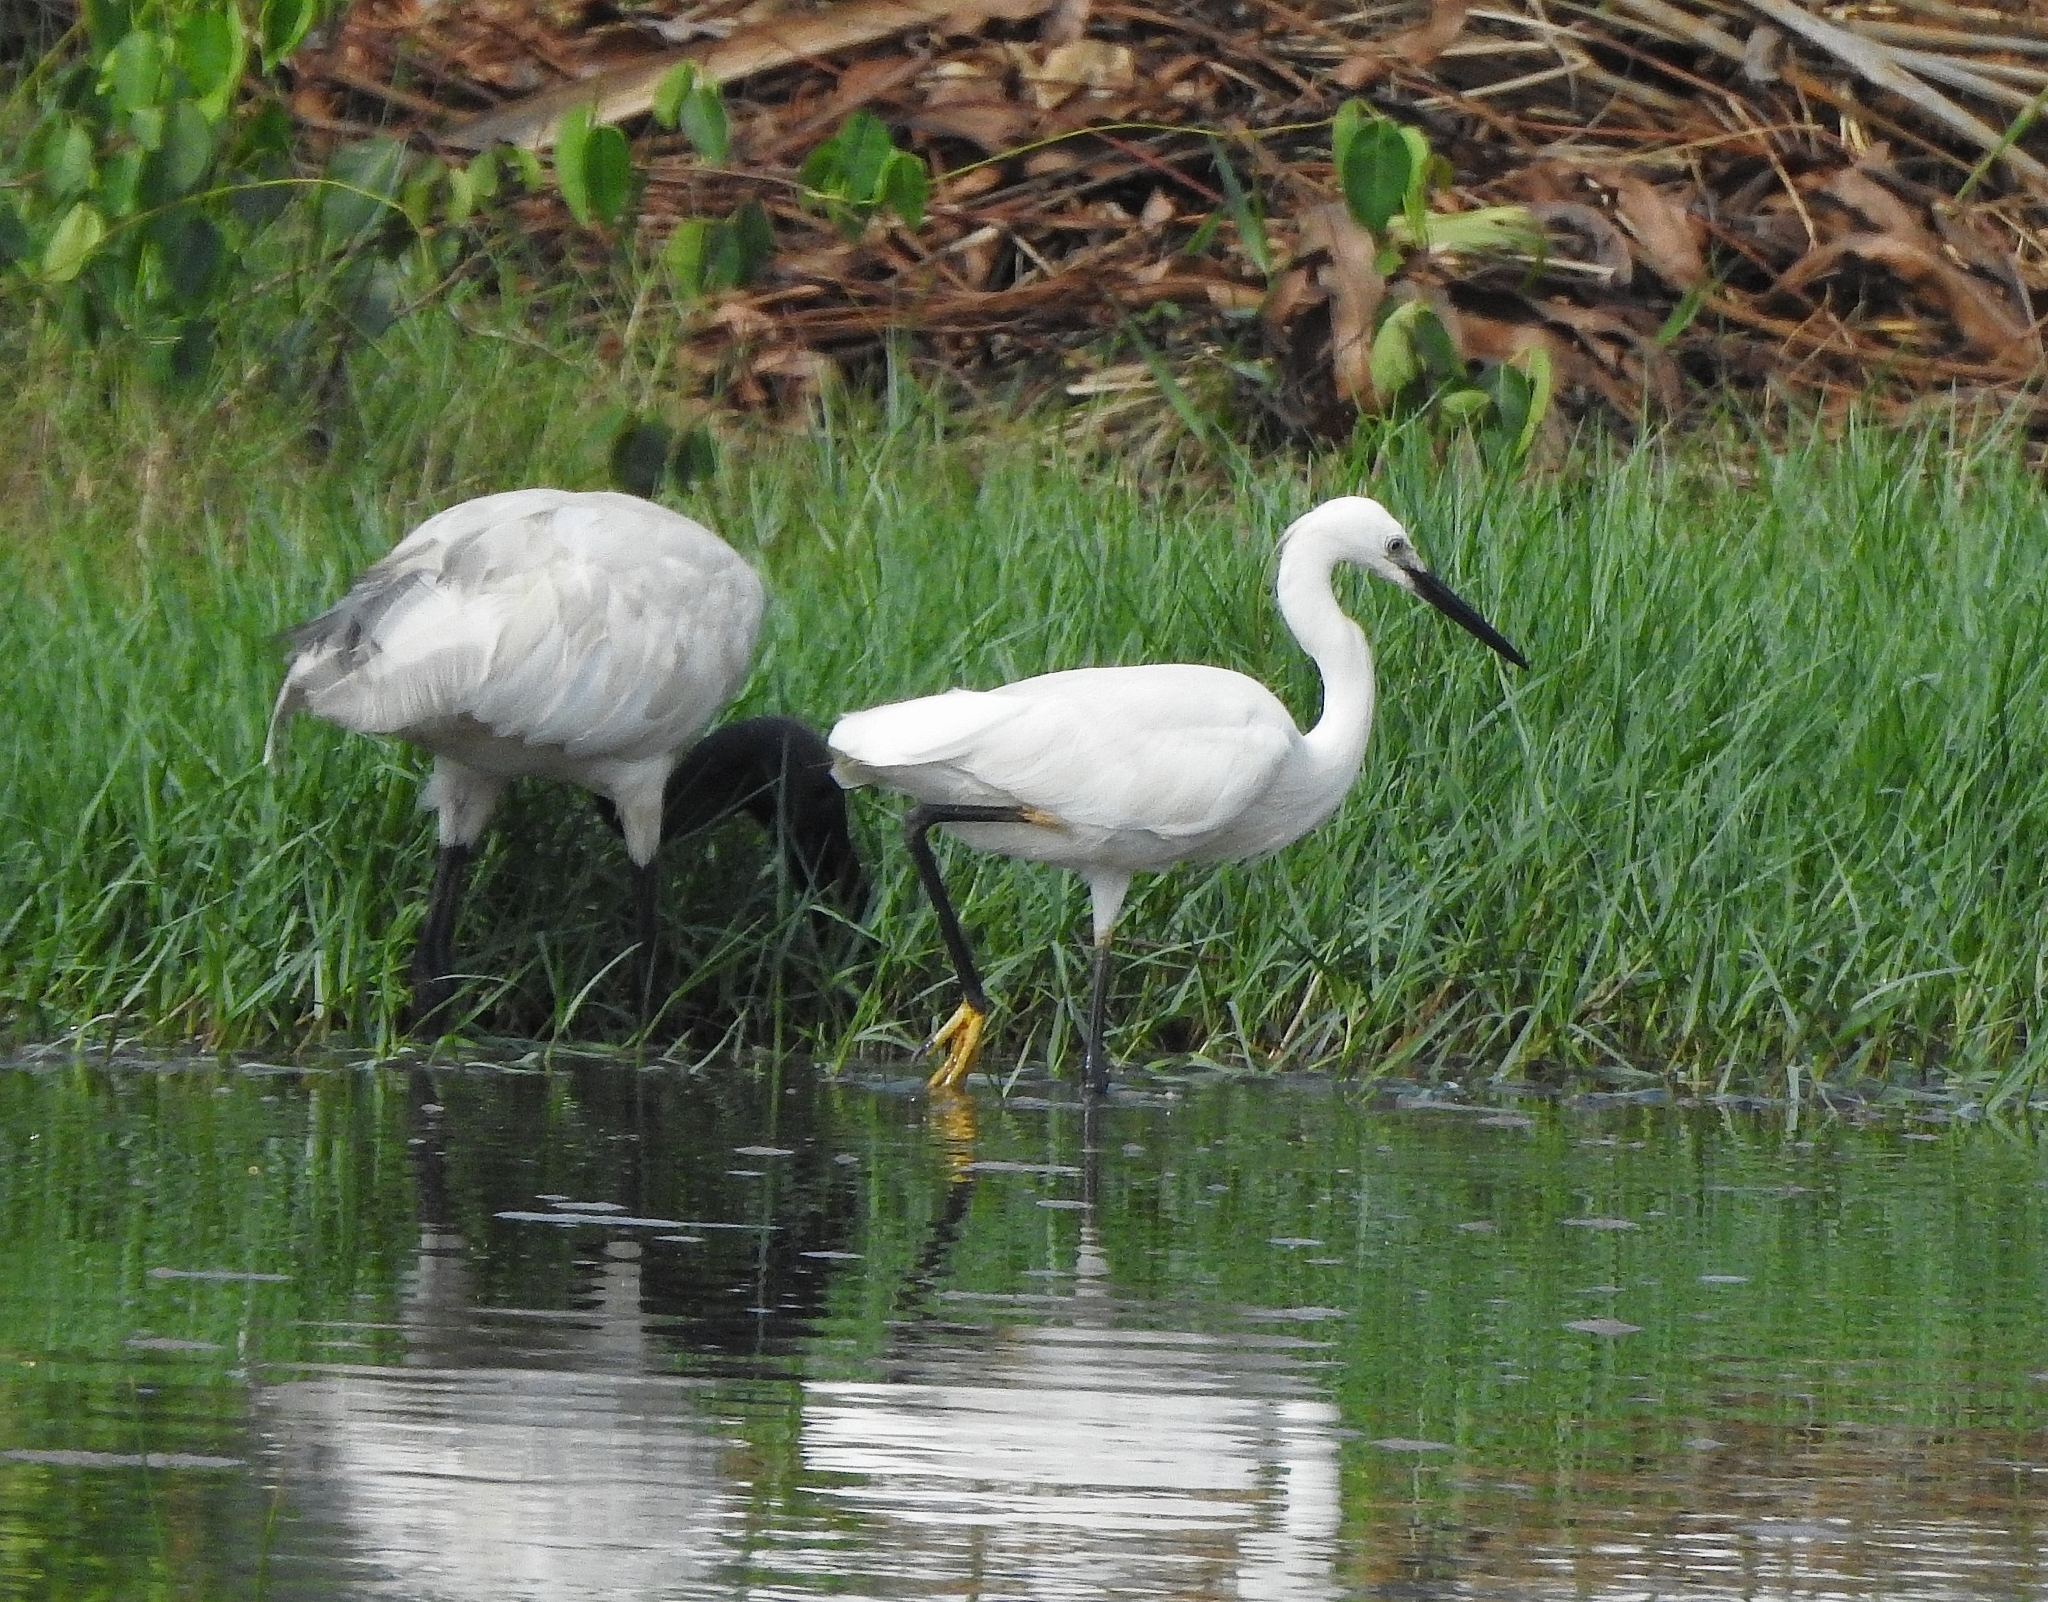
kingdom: Animalia
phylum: Chordata
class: Aves
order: Pelecaniformes
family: Ardeidae
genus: Egretta
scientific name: Egretta garzetta
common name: Little egret
